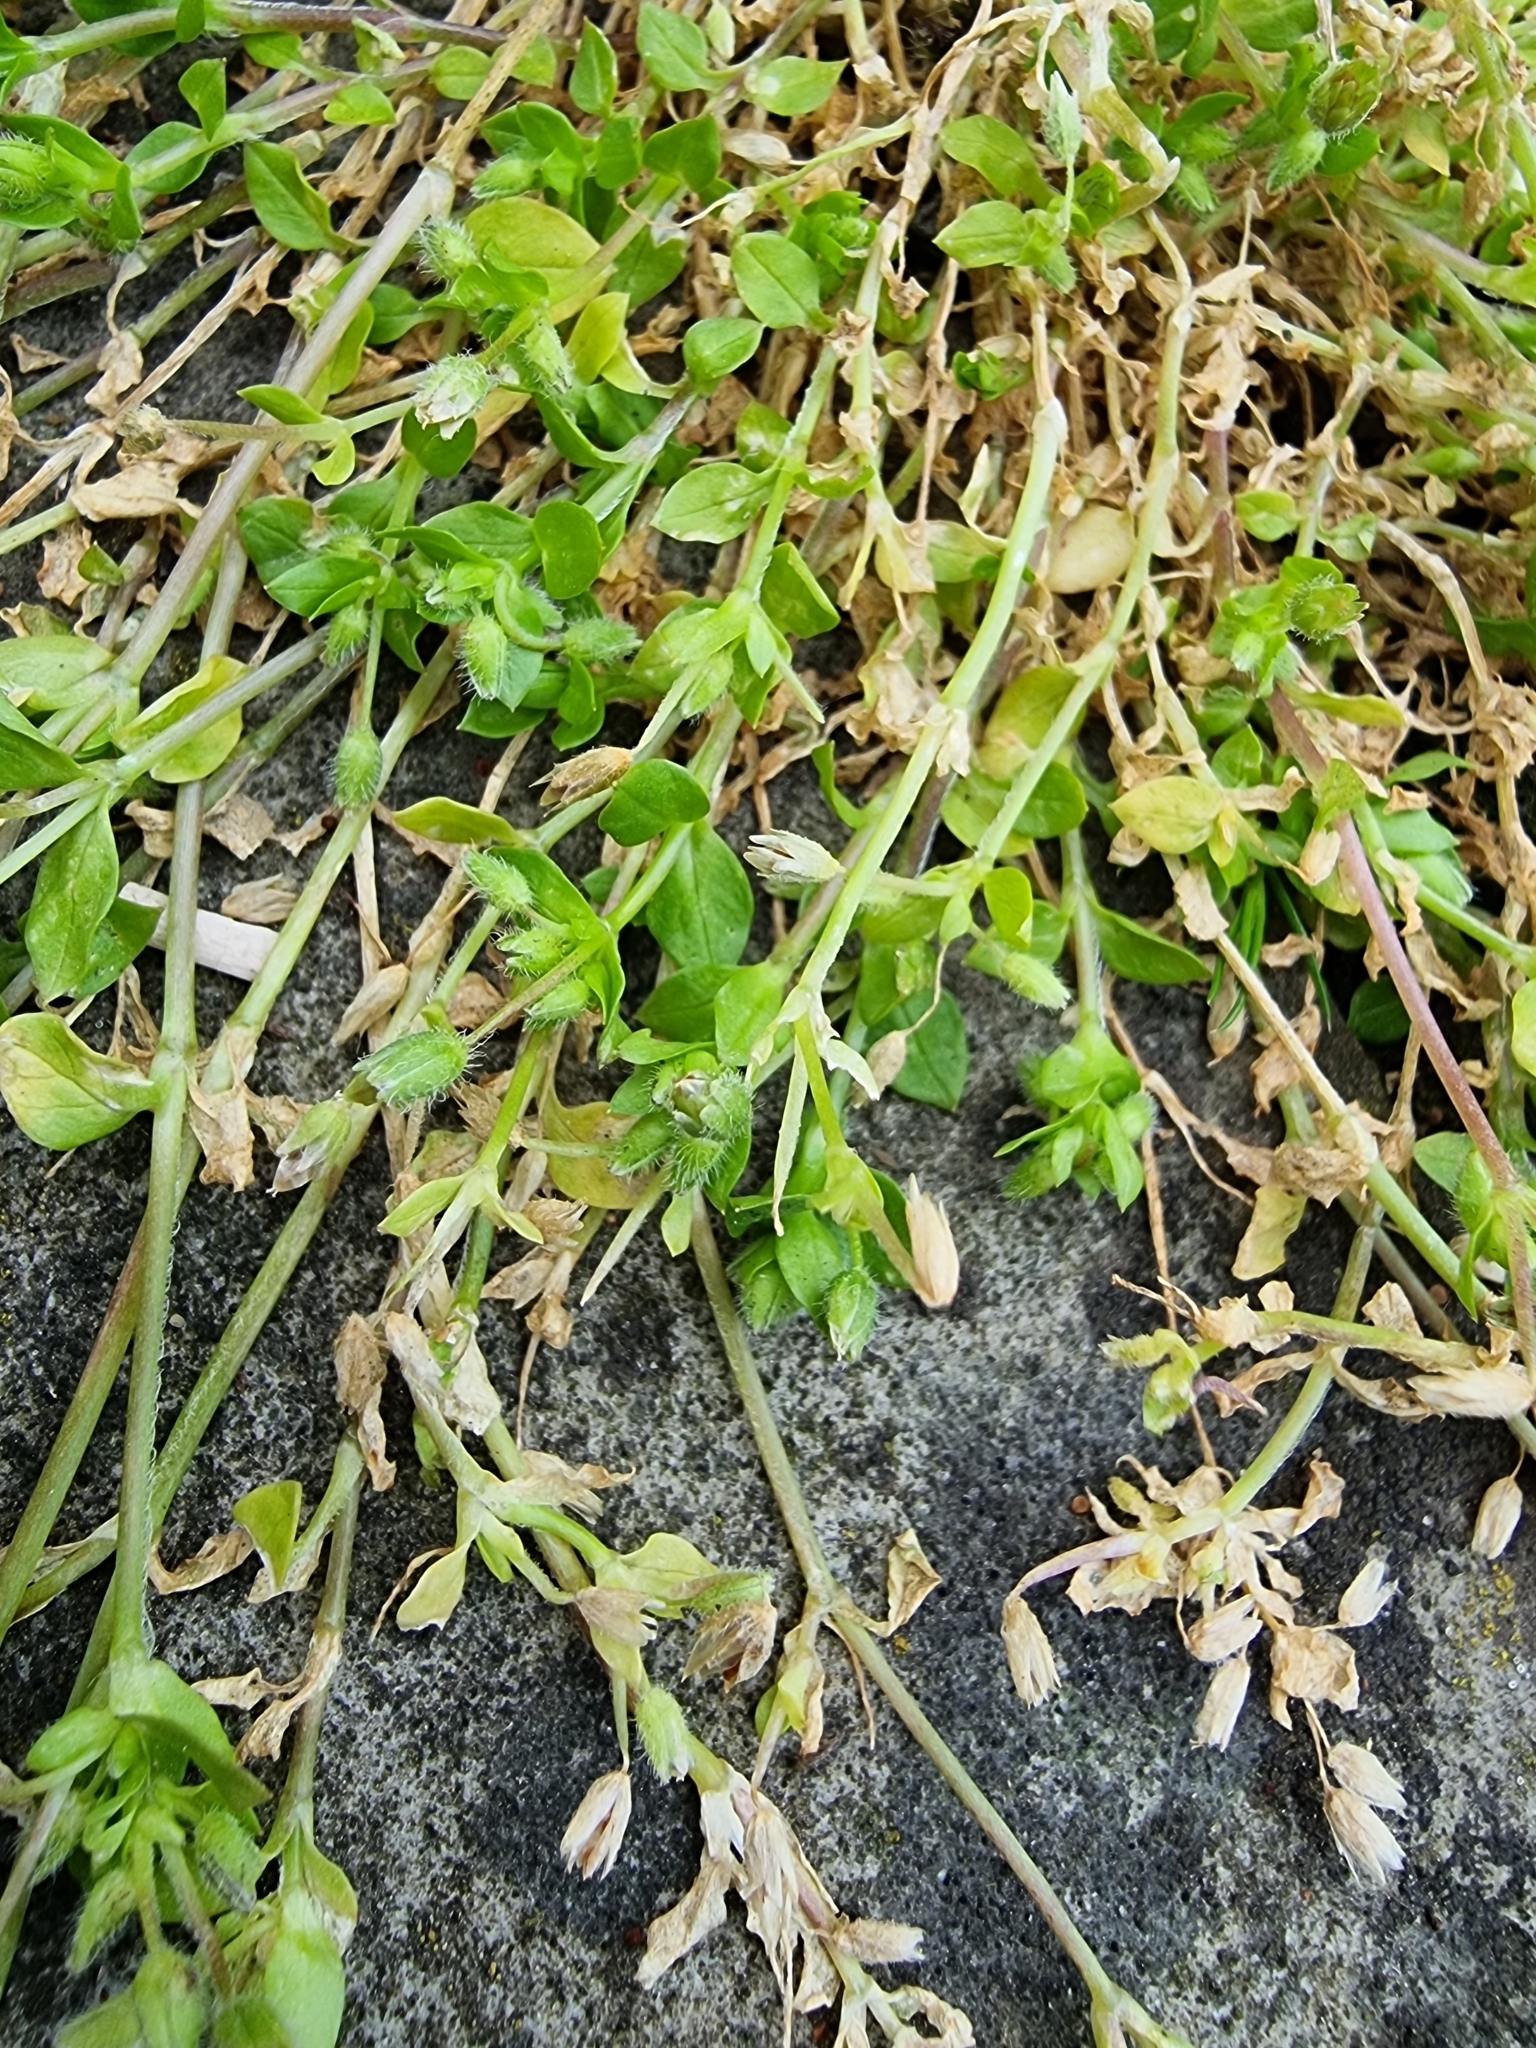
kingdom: Plantae
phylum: Tracheophyta
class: Magnoliopsida
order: Caryophyllales
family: Caryophyllaceae
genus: Stellaria
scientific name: Stellaria apetala
